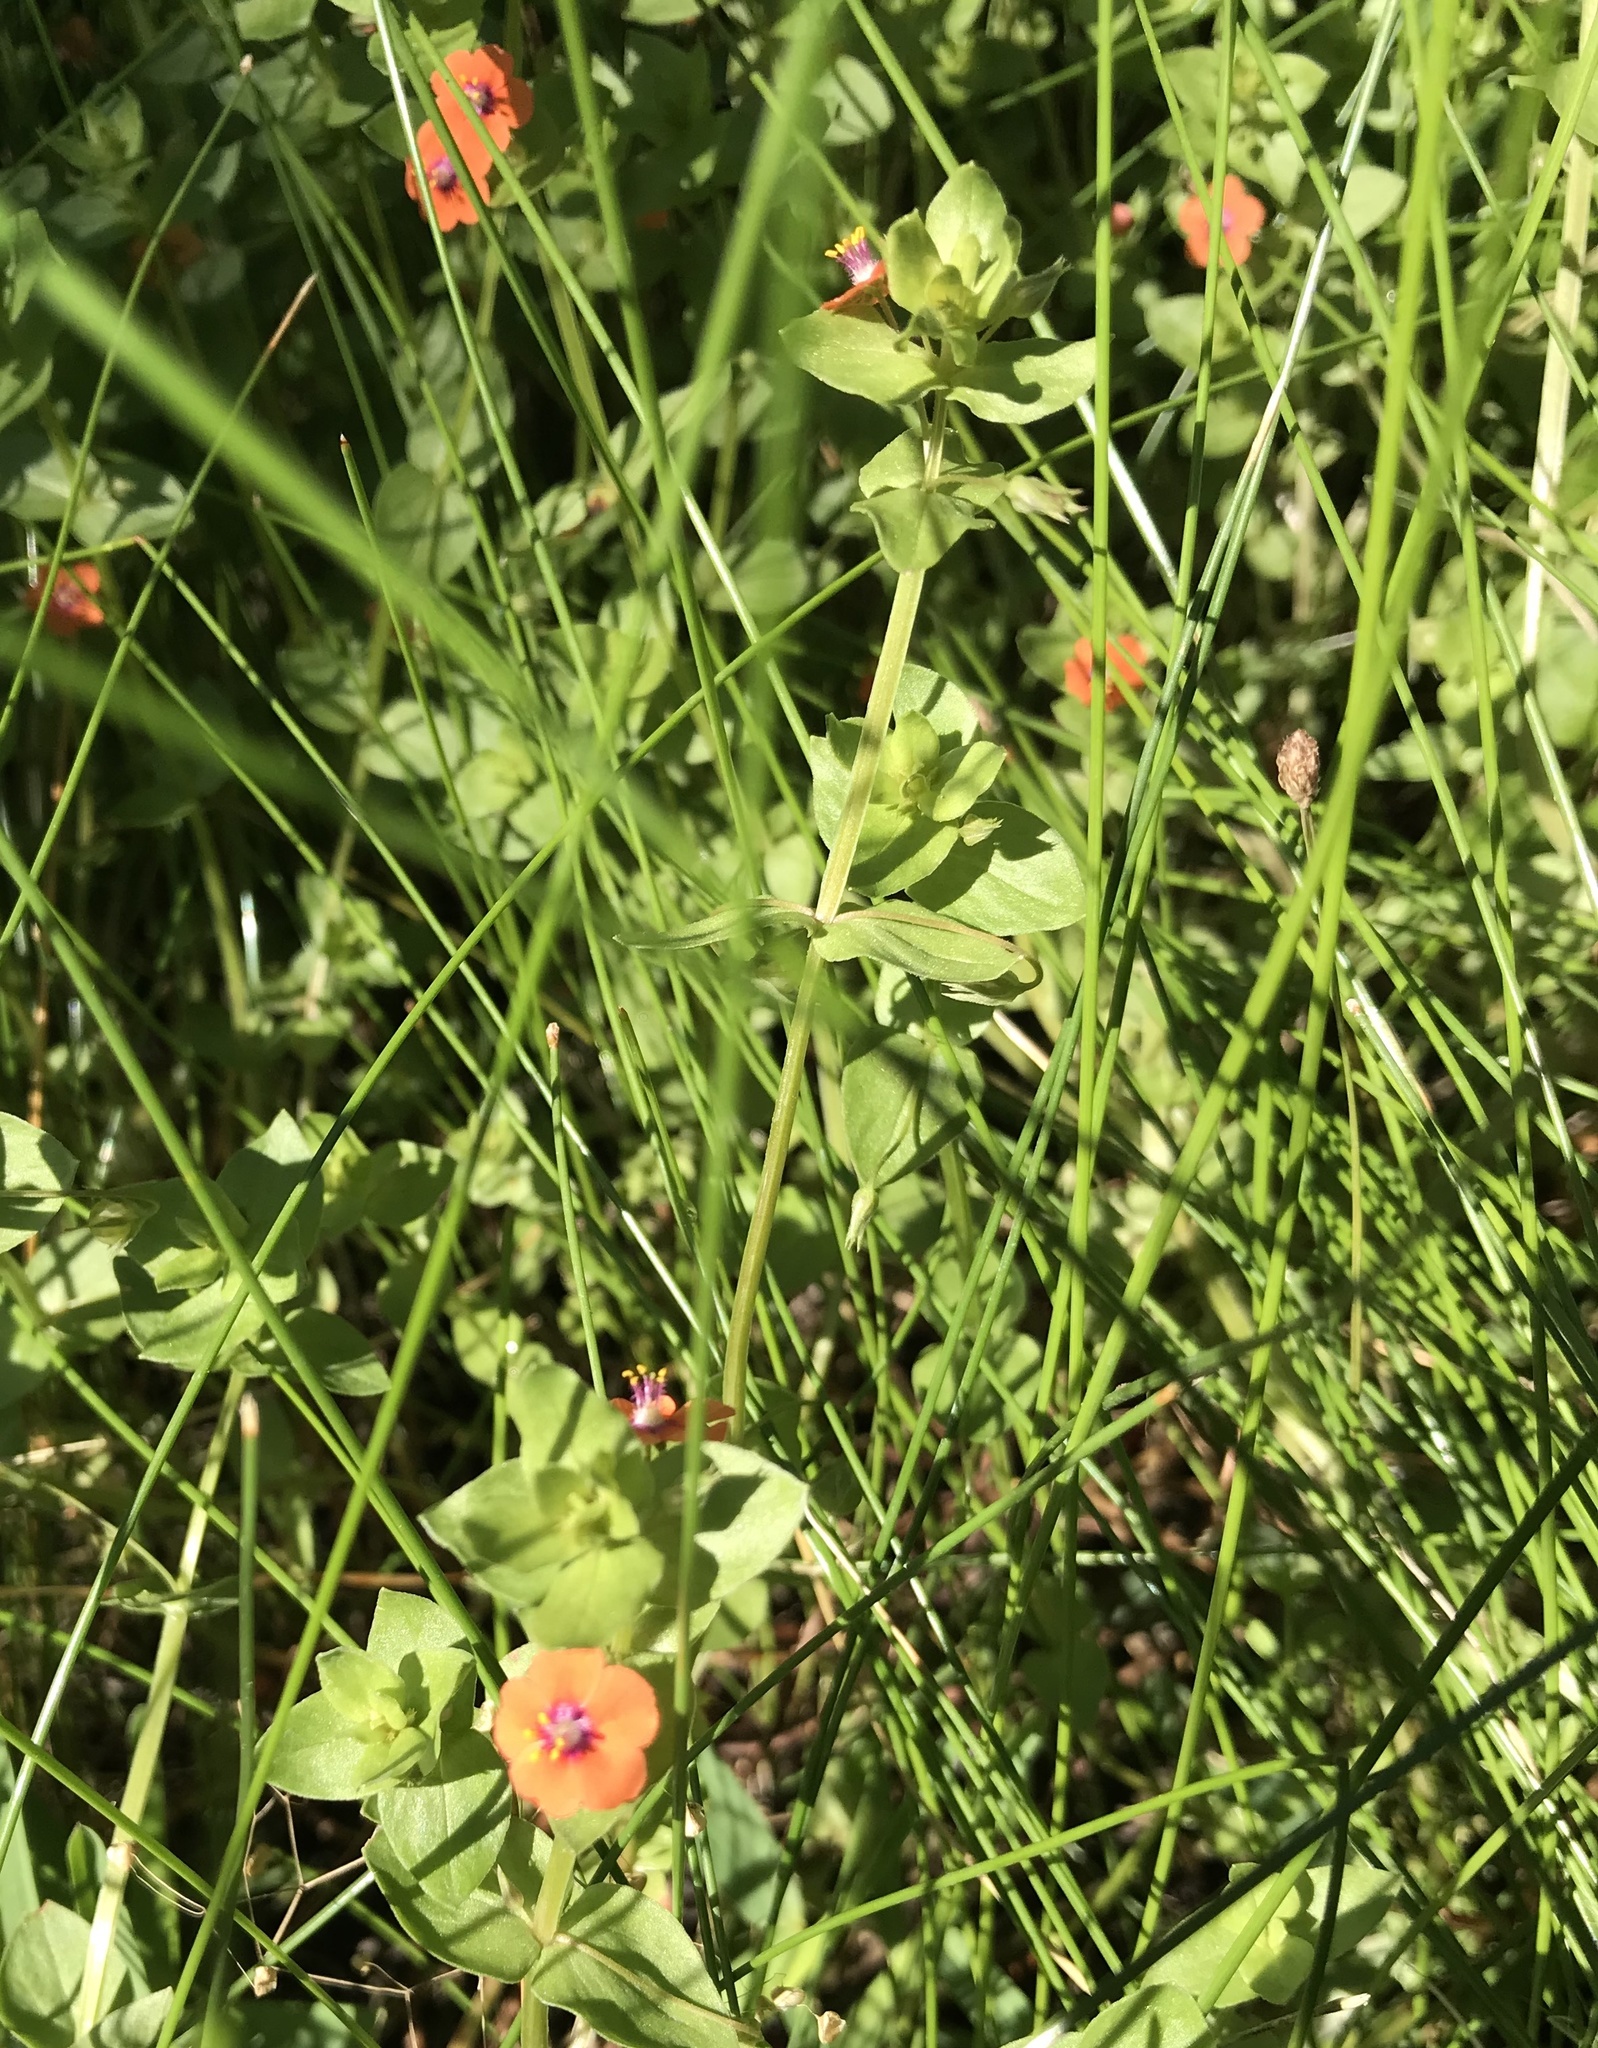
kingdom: Plantae
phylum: Tracheophyta
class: Magnoliopsida
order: Ericales
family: Primulaceae
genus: Lysimachia
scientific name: Lysimachia arvensis
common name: Scarlet pimpernel
